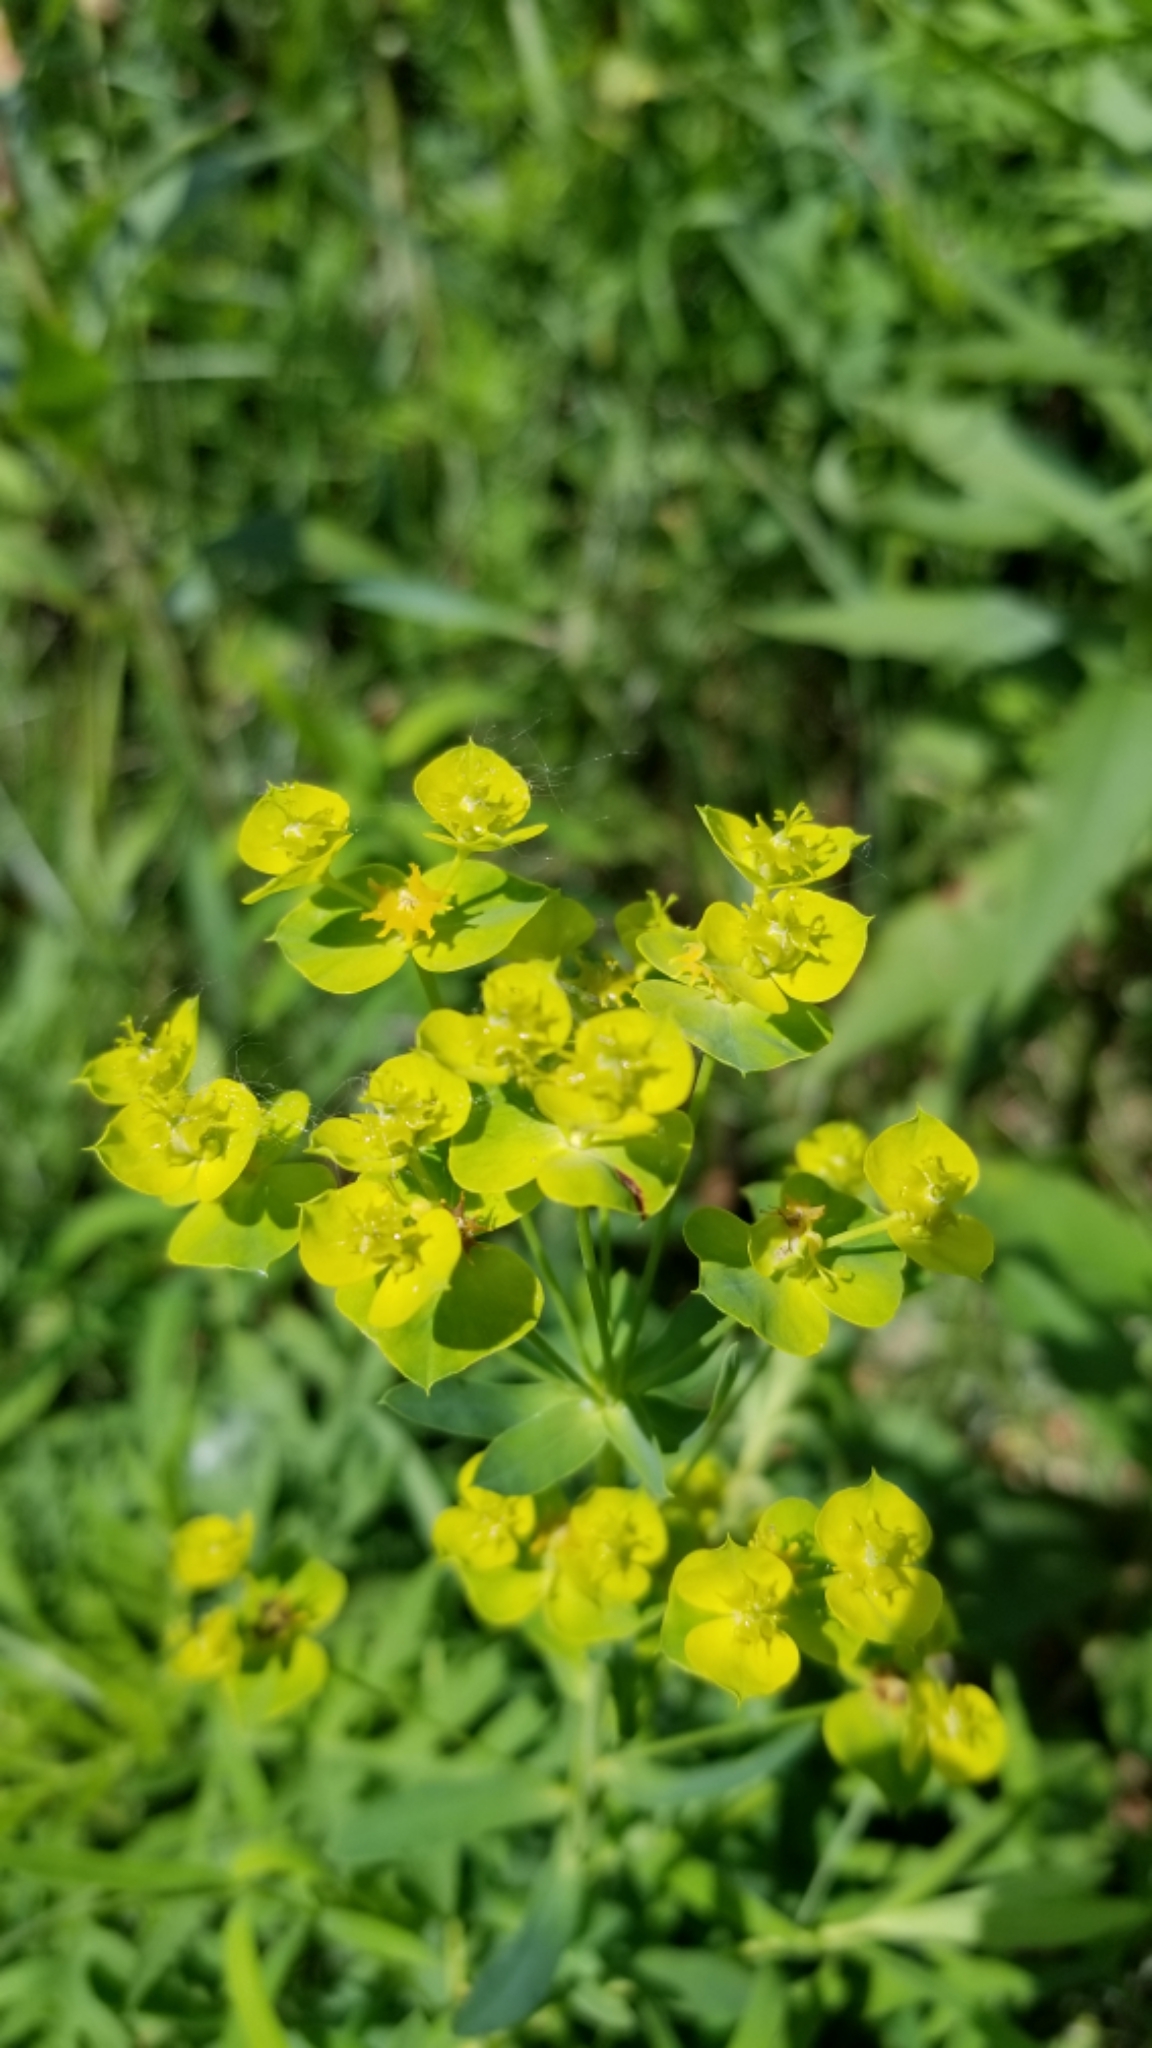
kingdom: Plantae
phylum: Tracheophyta
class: Magnoliopsida
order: Malpighiales
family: Euphorbiaceae
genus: Euphorbia
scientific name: Euphorbia virgata
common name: Leafy spurge
